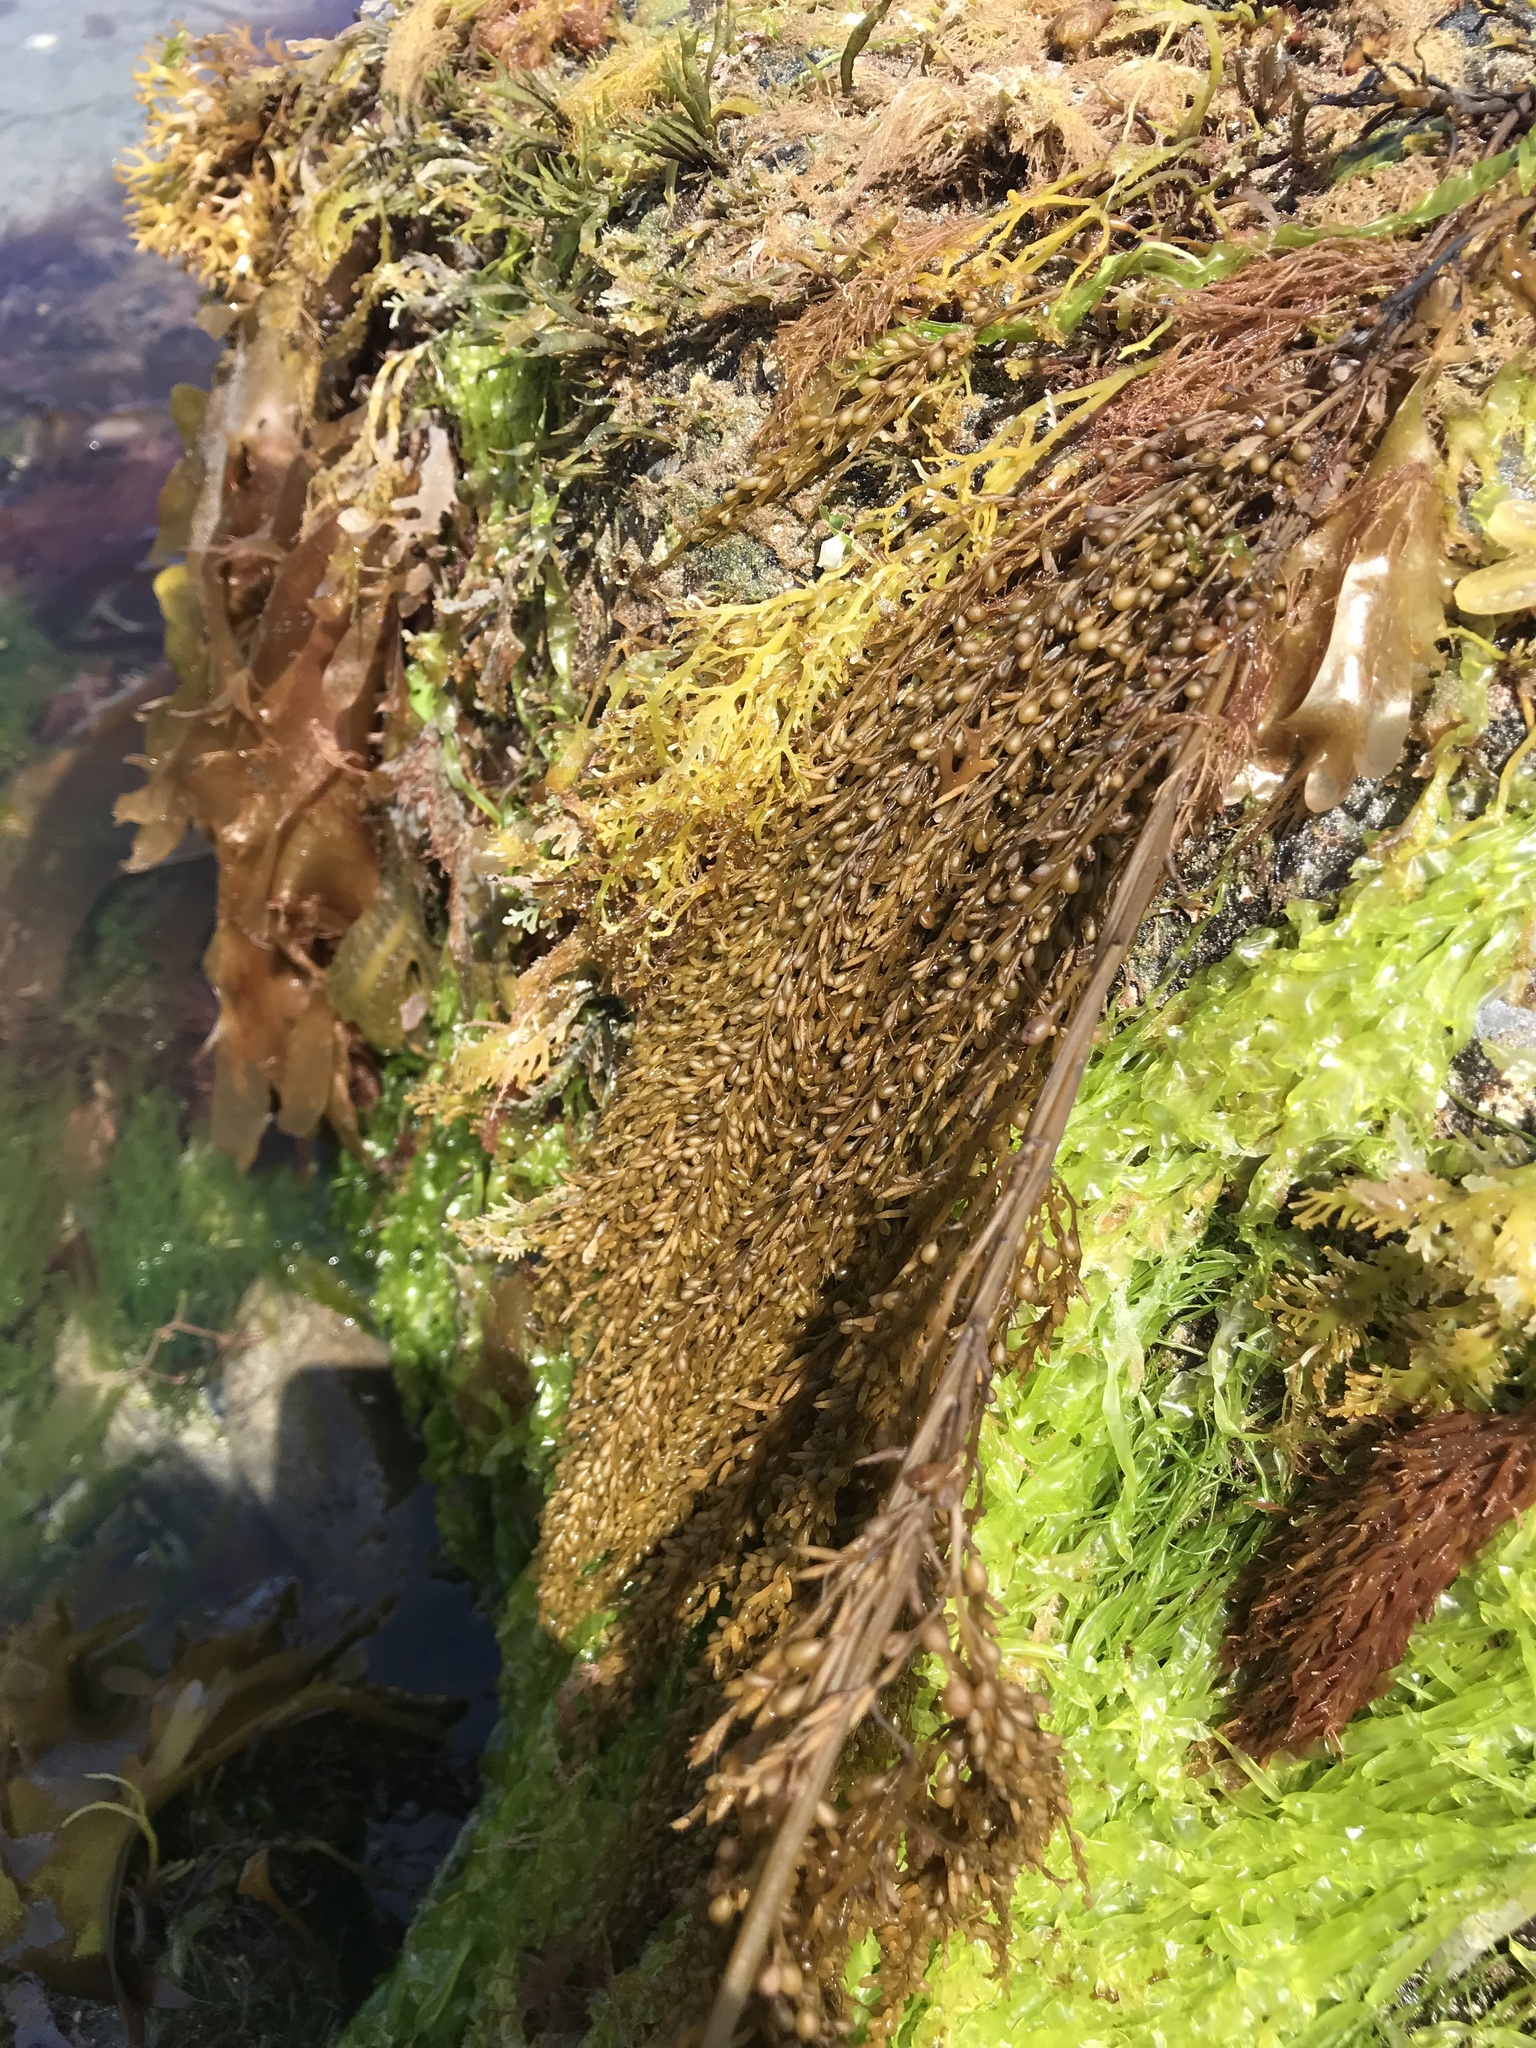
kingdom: Chromista
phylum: Ochrophyta
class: Phaeophyceae
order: Fucales
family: Sargassaceae
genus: Sargassum
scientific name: Sargassum muticum
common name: Japweed
